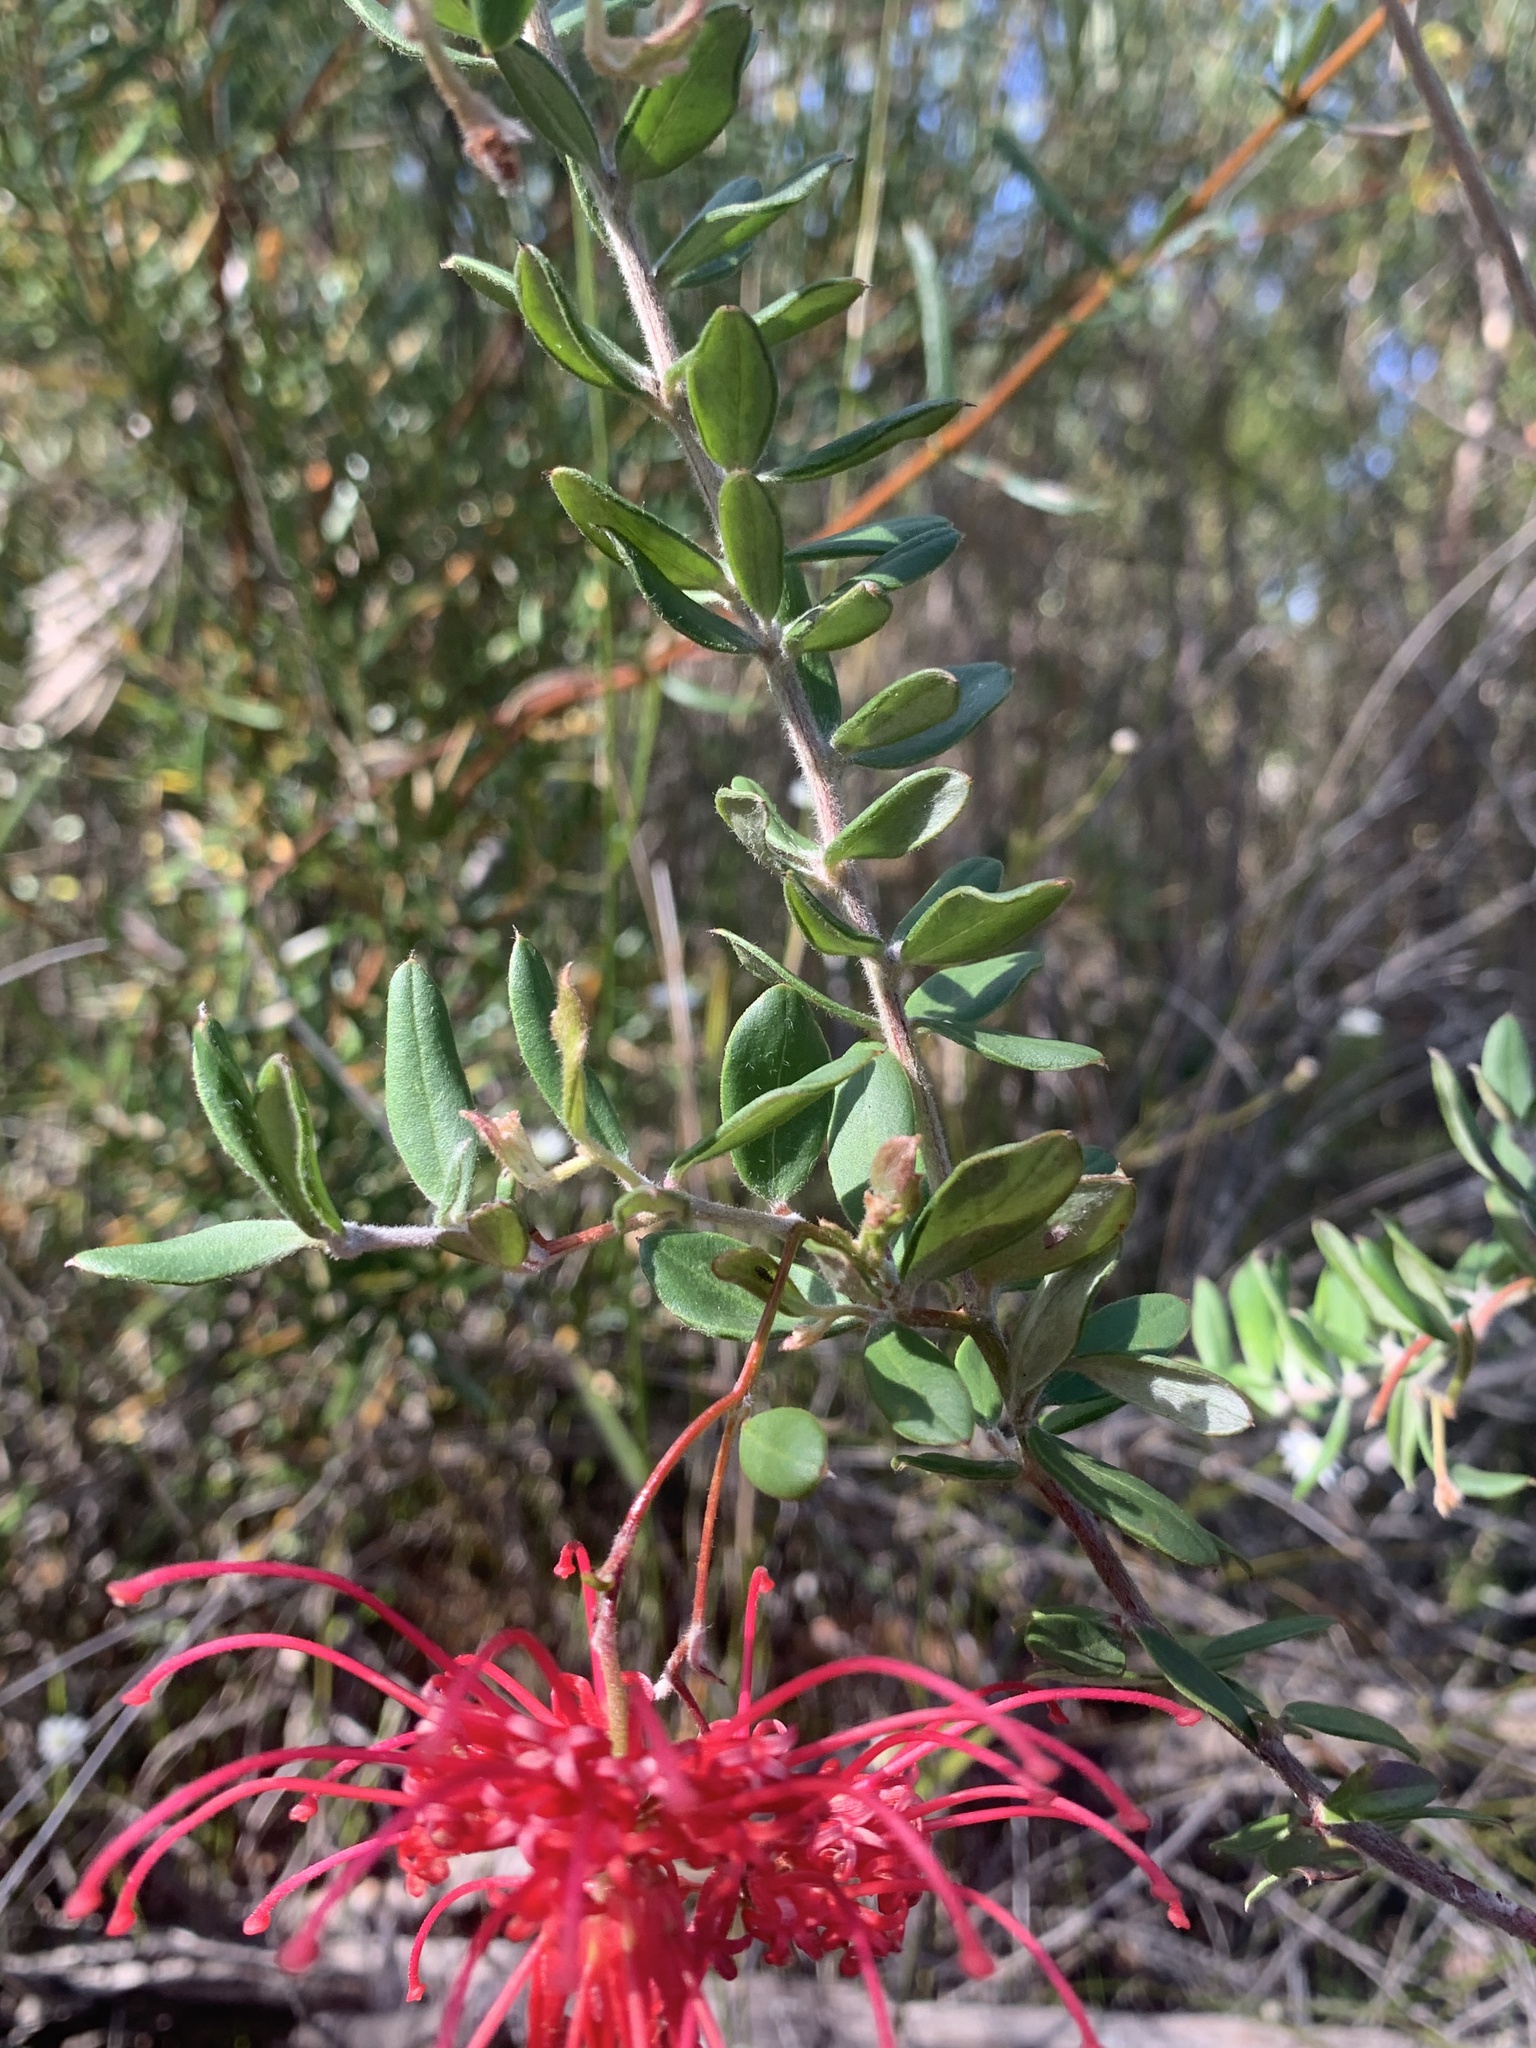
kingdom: Plantae
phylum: Tracheophyta
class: Magnoliopsida
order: Proteales
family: Proteaceae
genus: Grevillea
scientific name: Grevillea speciosa
